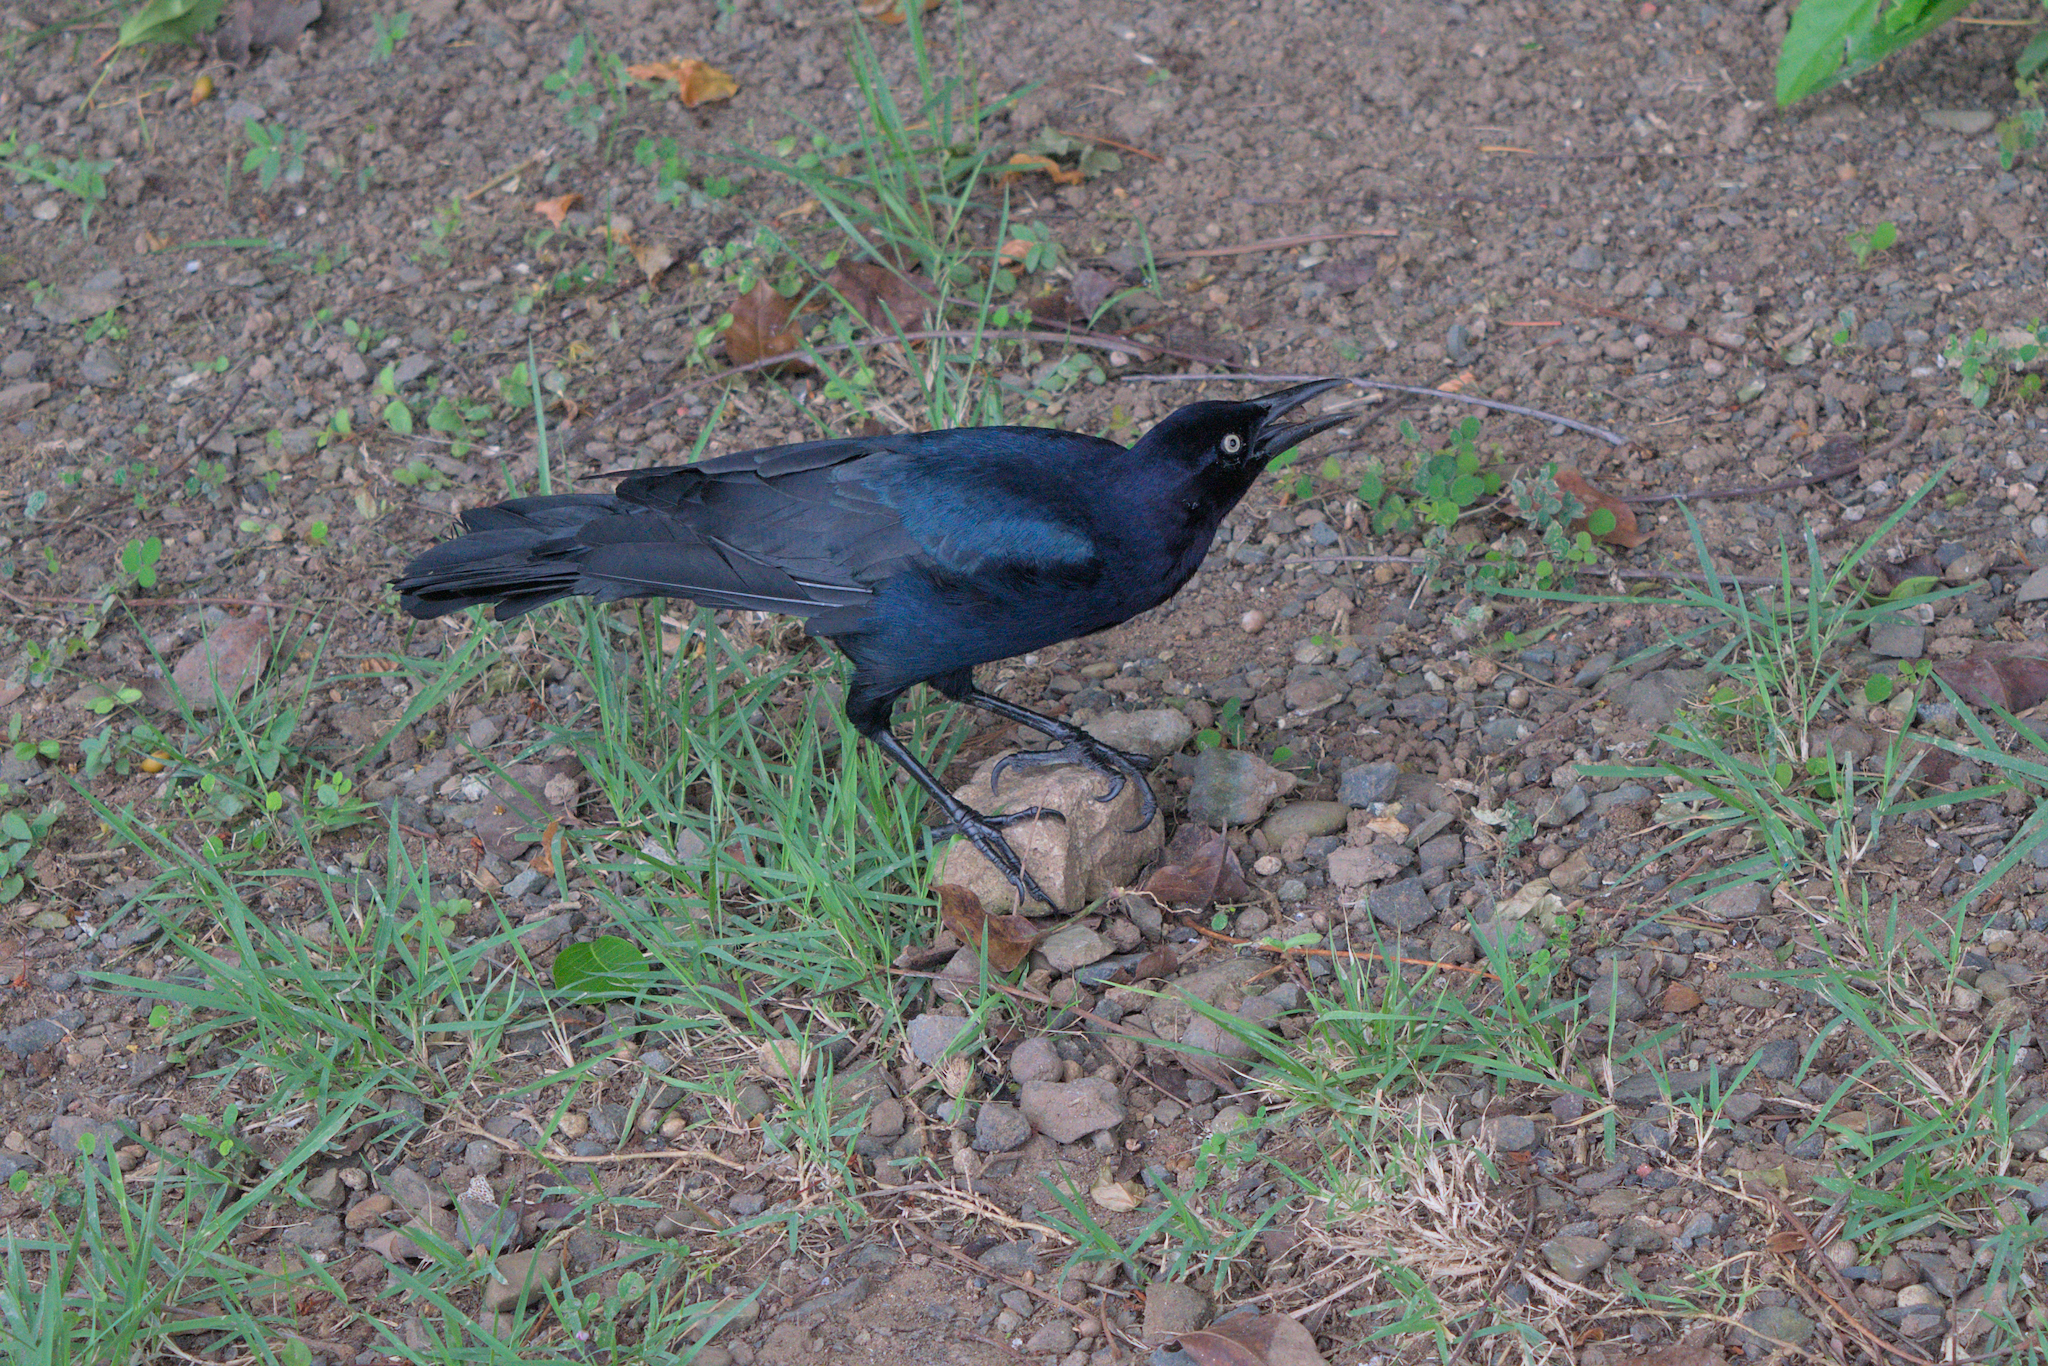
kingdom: Animalia
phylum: Chordata
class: Aves
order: Passeriformes
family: Icteridae
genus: Quiscalus
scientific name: Quiscalus mexicanus
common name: Great-tailed grackle
